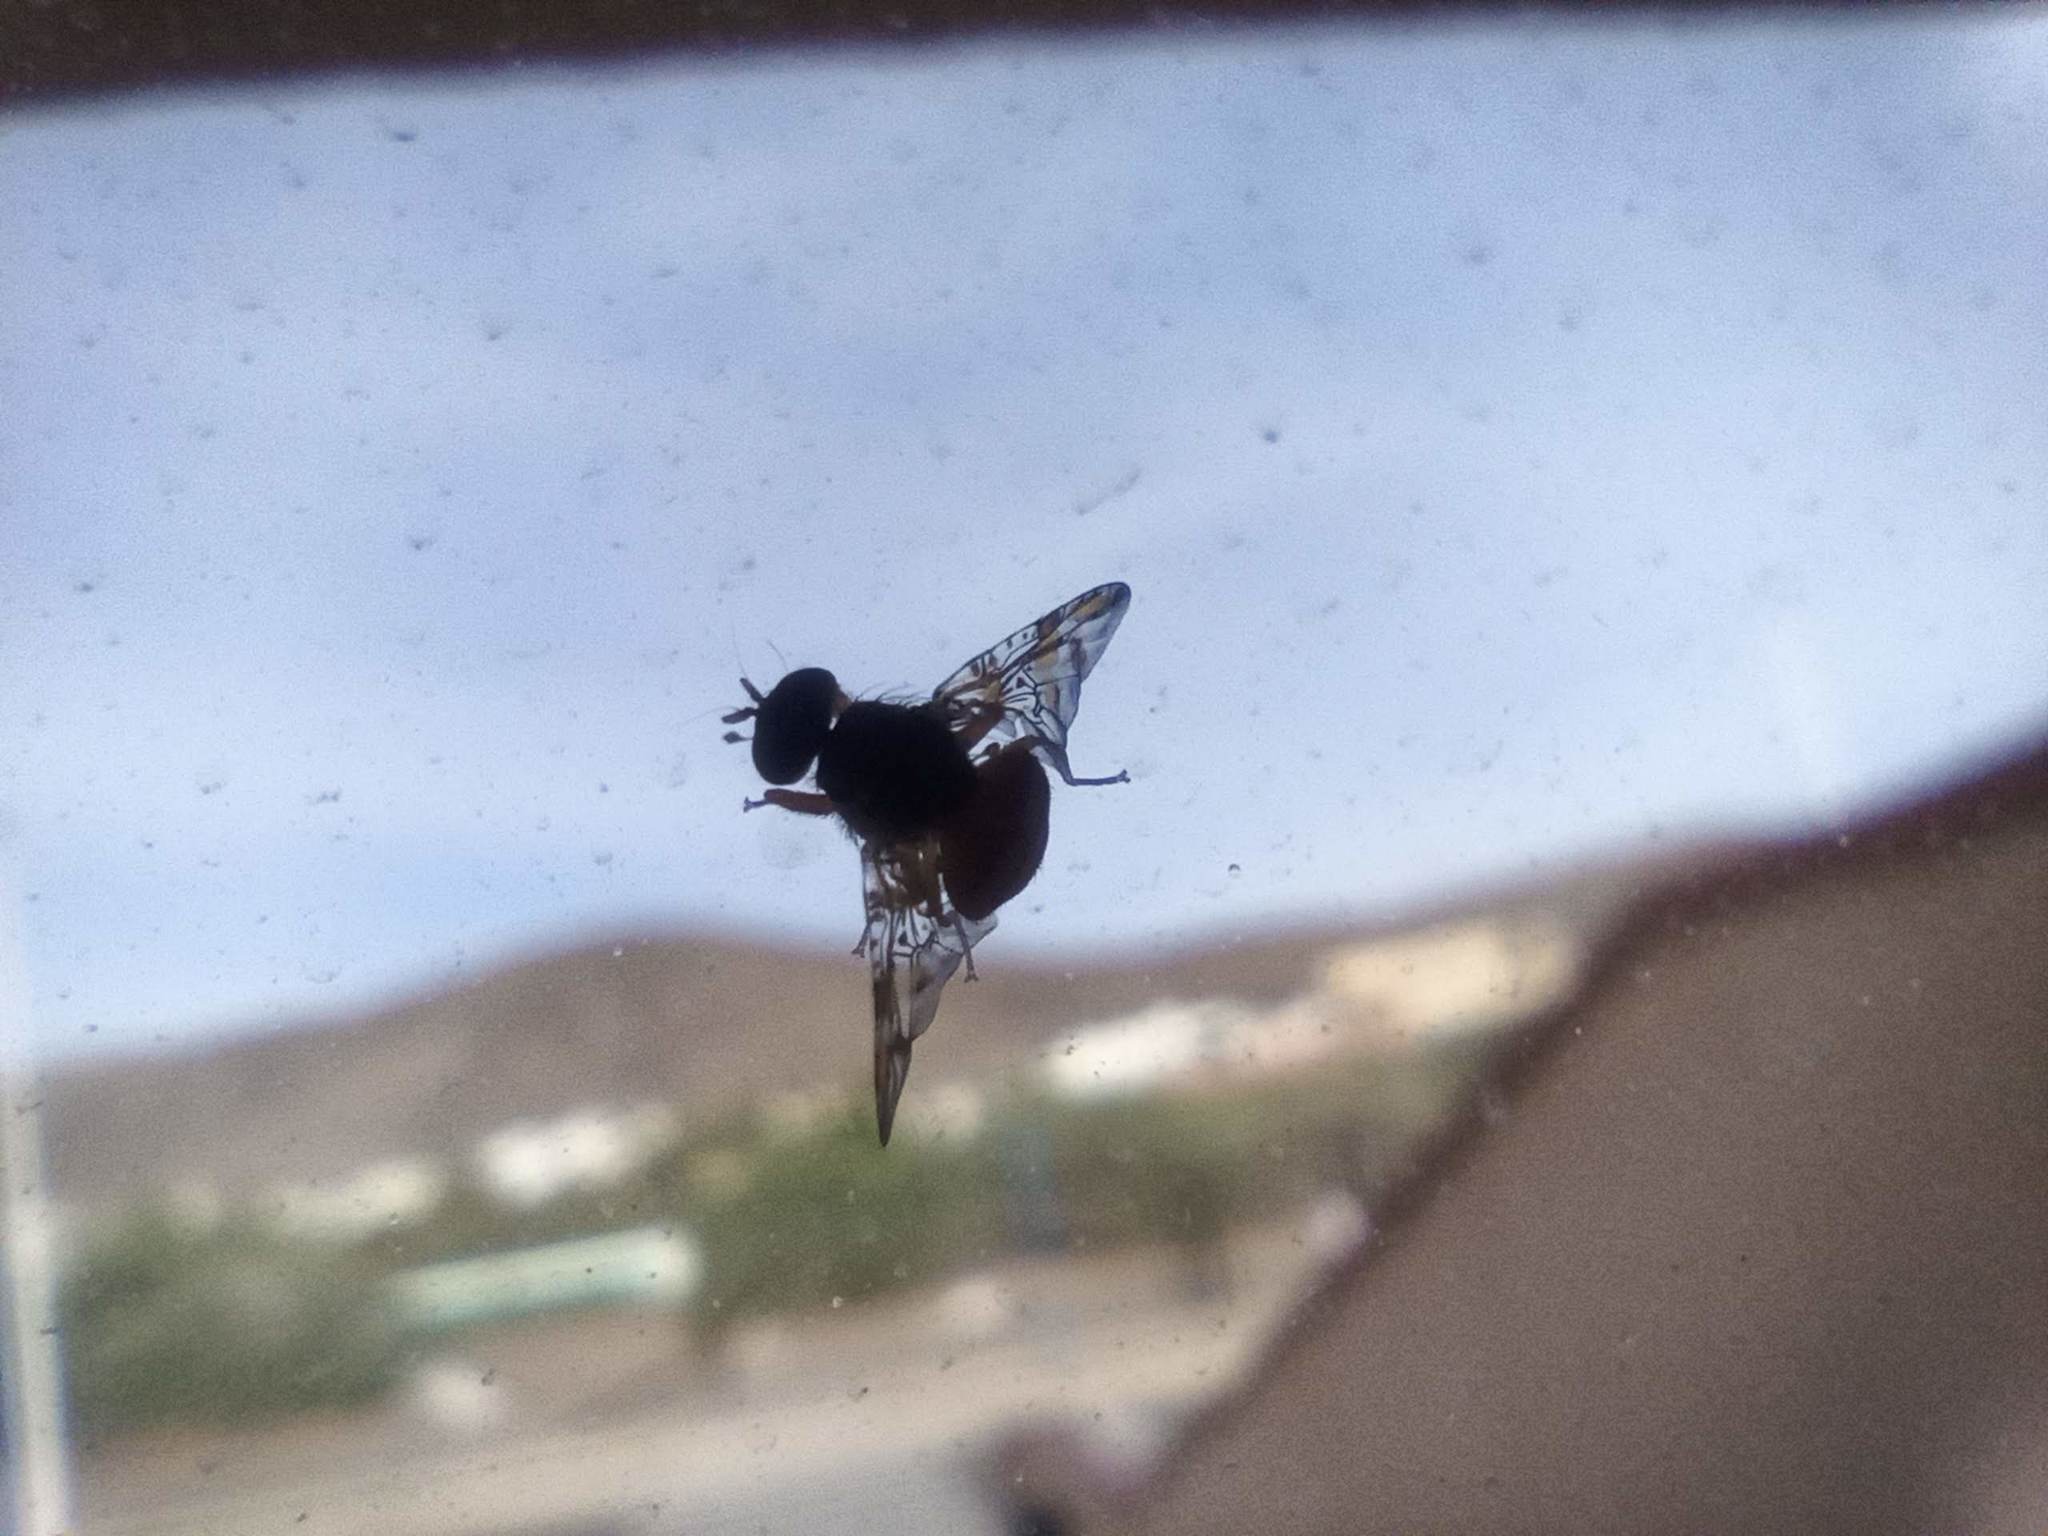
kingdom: Animalia
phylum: Arthropoda
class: Insecta
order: Diptera
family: Tephritidae
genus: Ceratitis
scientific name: Ceratitis capitata
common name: Mediterranean fruit fly
